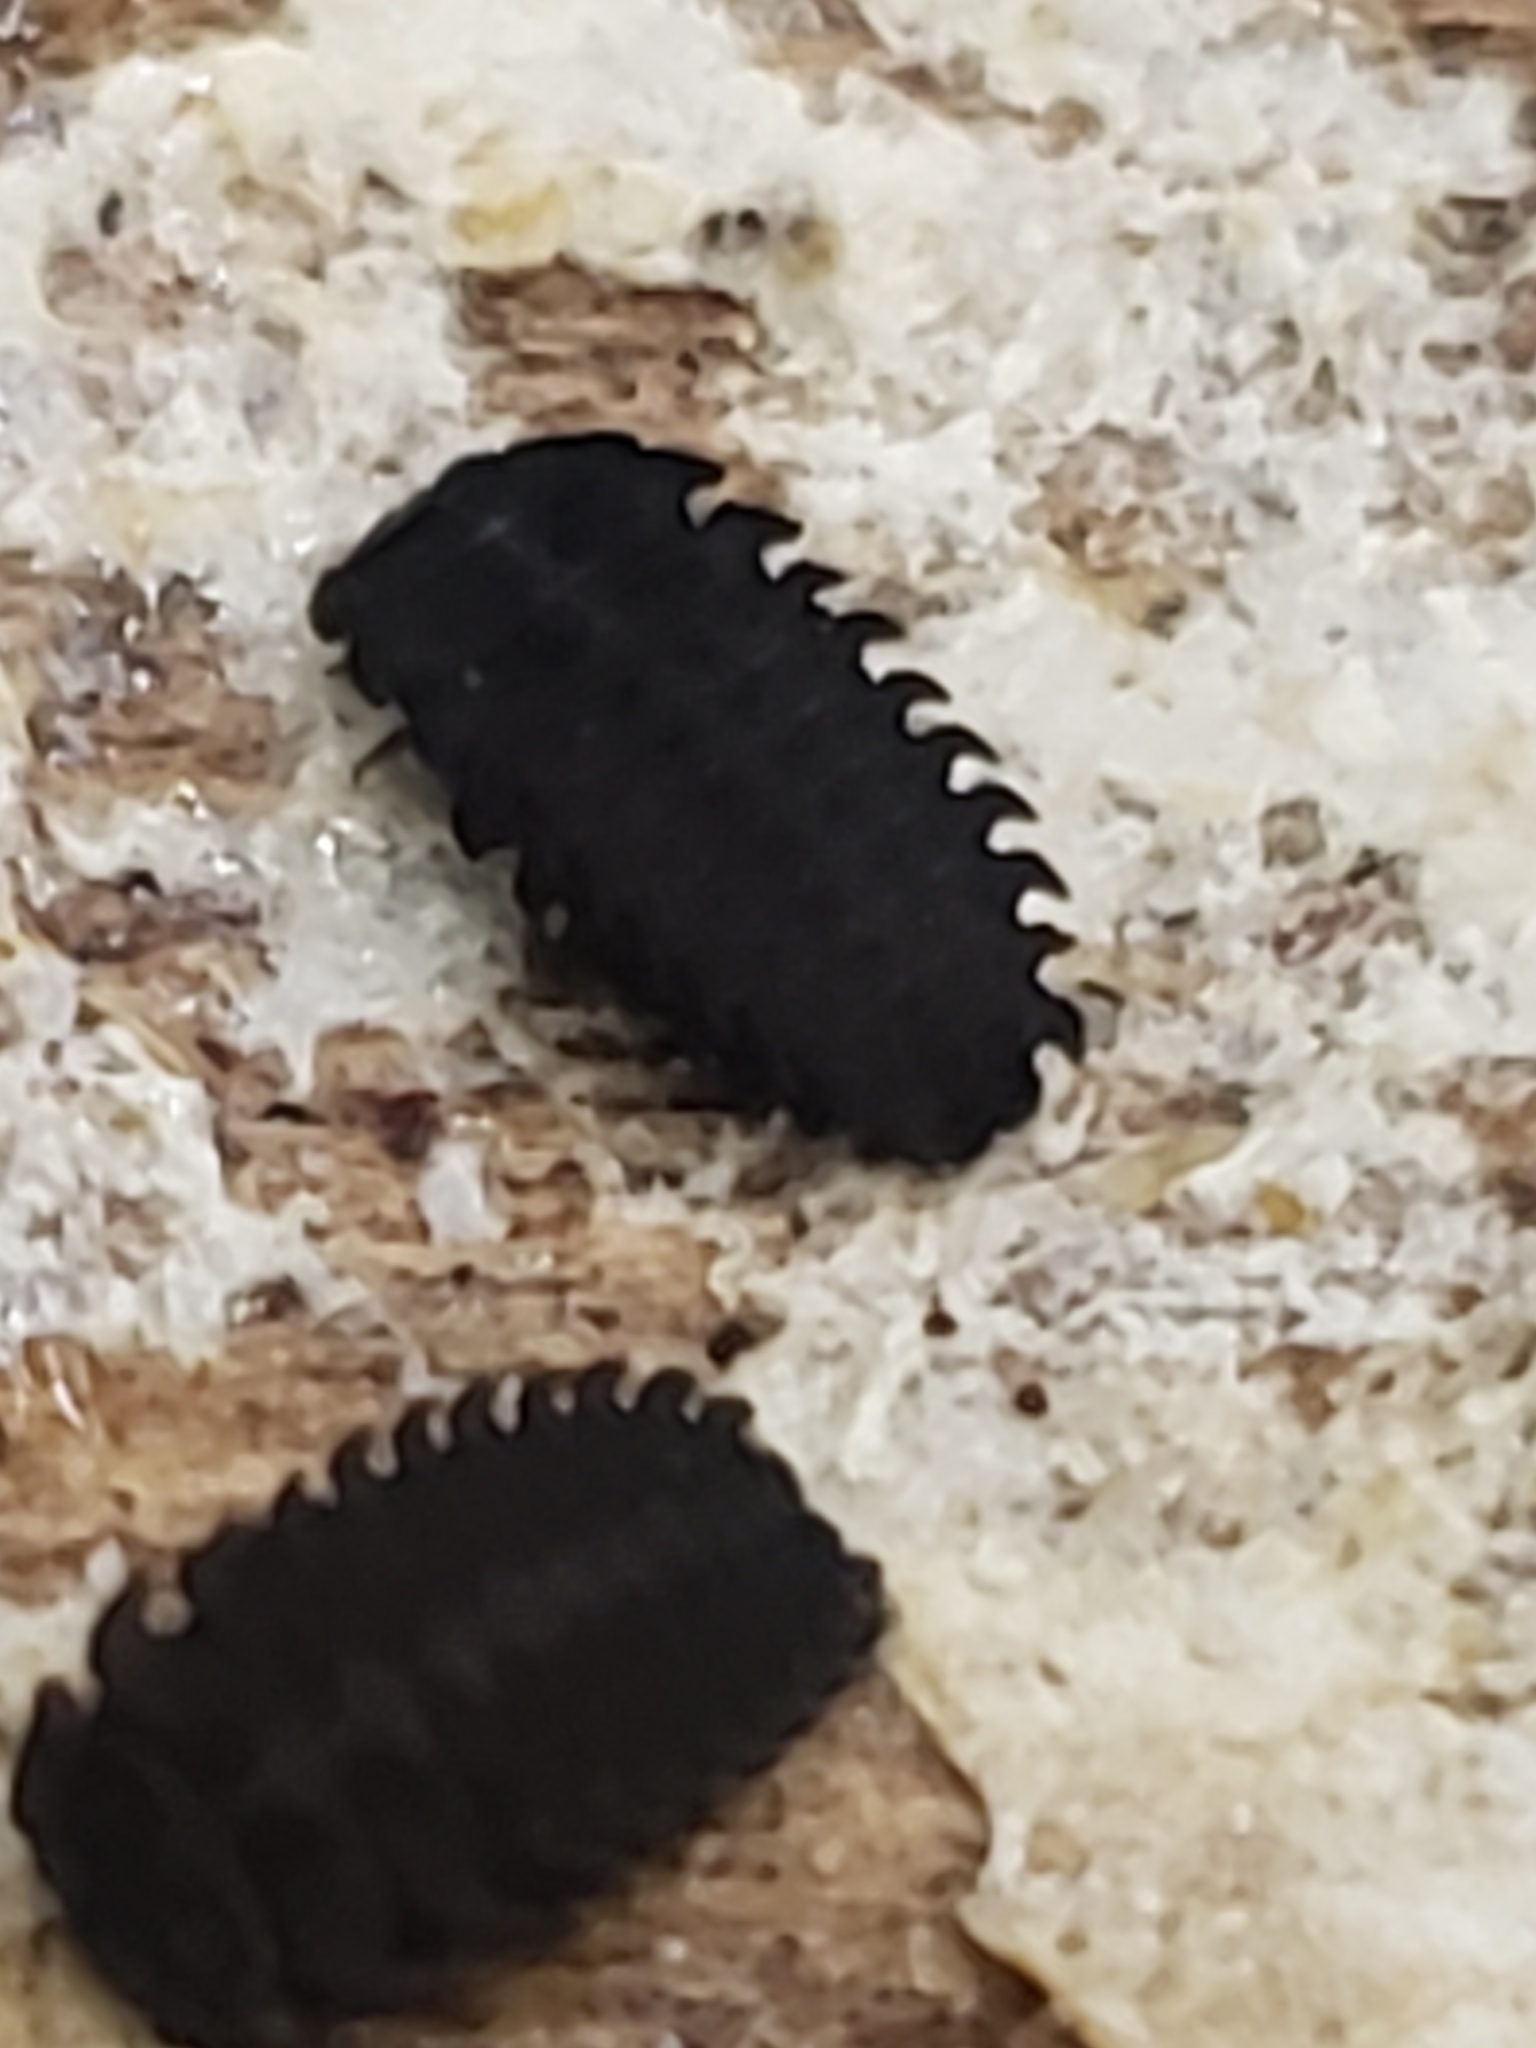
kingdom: Animalia
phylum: Arthropoda
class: Insecta
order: Coleoptera
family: Endomychidae
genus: Endomychus
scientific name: Endomychus biguttatus
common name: Handsome fungus beetle
